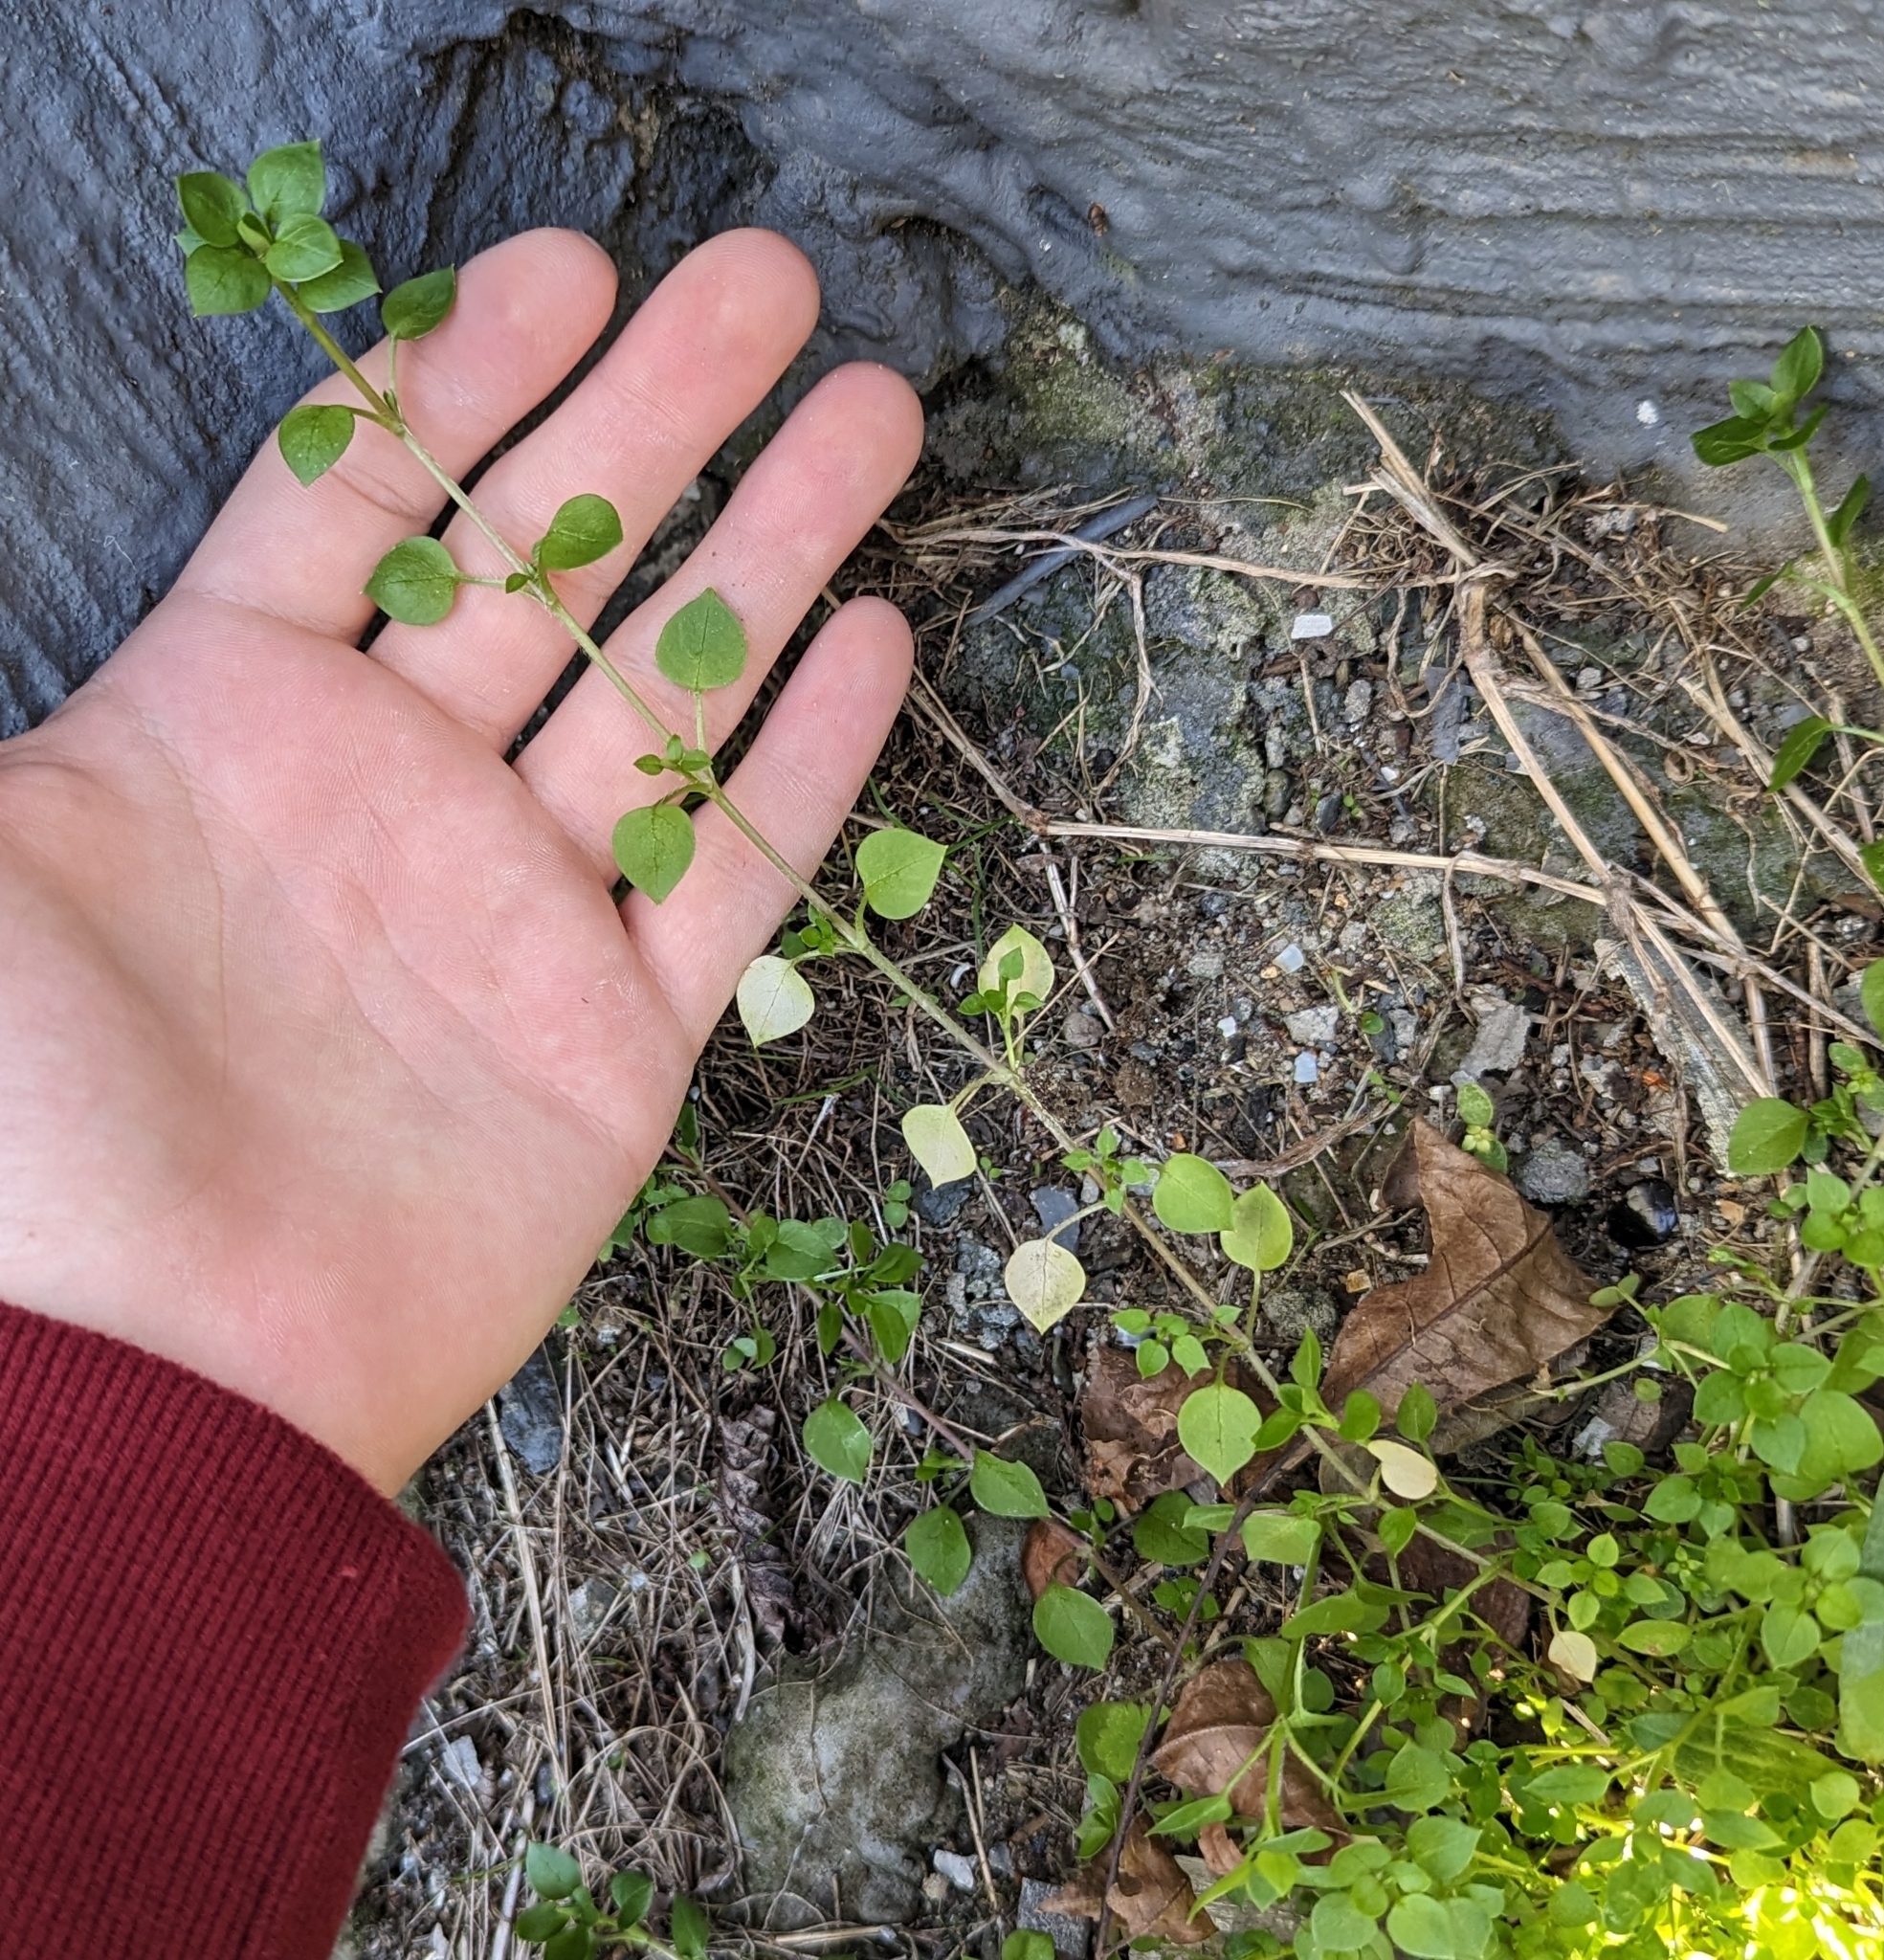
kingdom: Plantae
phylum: Tracheophyta
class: Magnoliopsida
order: Caryophyllales
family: Caryophyllaceae
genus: Stellaria
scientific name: Stellaria media
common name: Common chickweed
